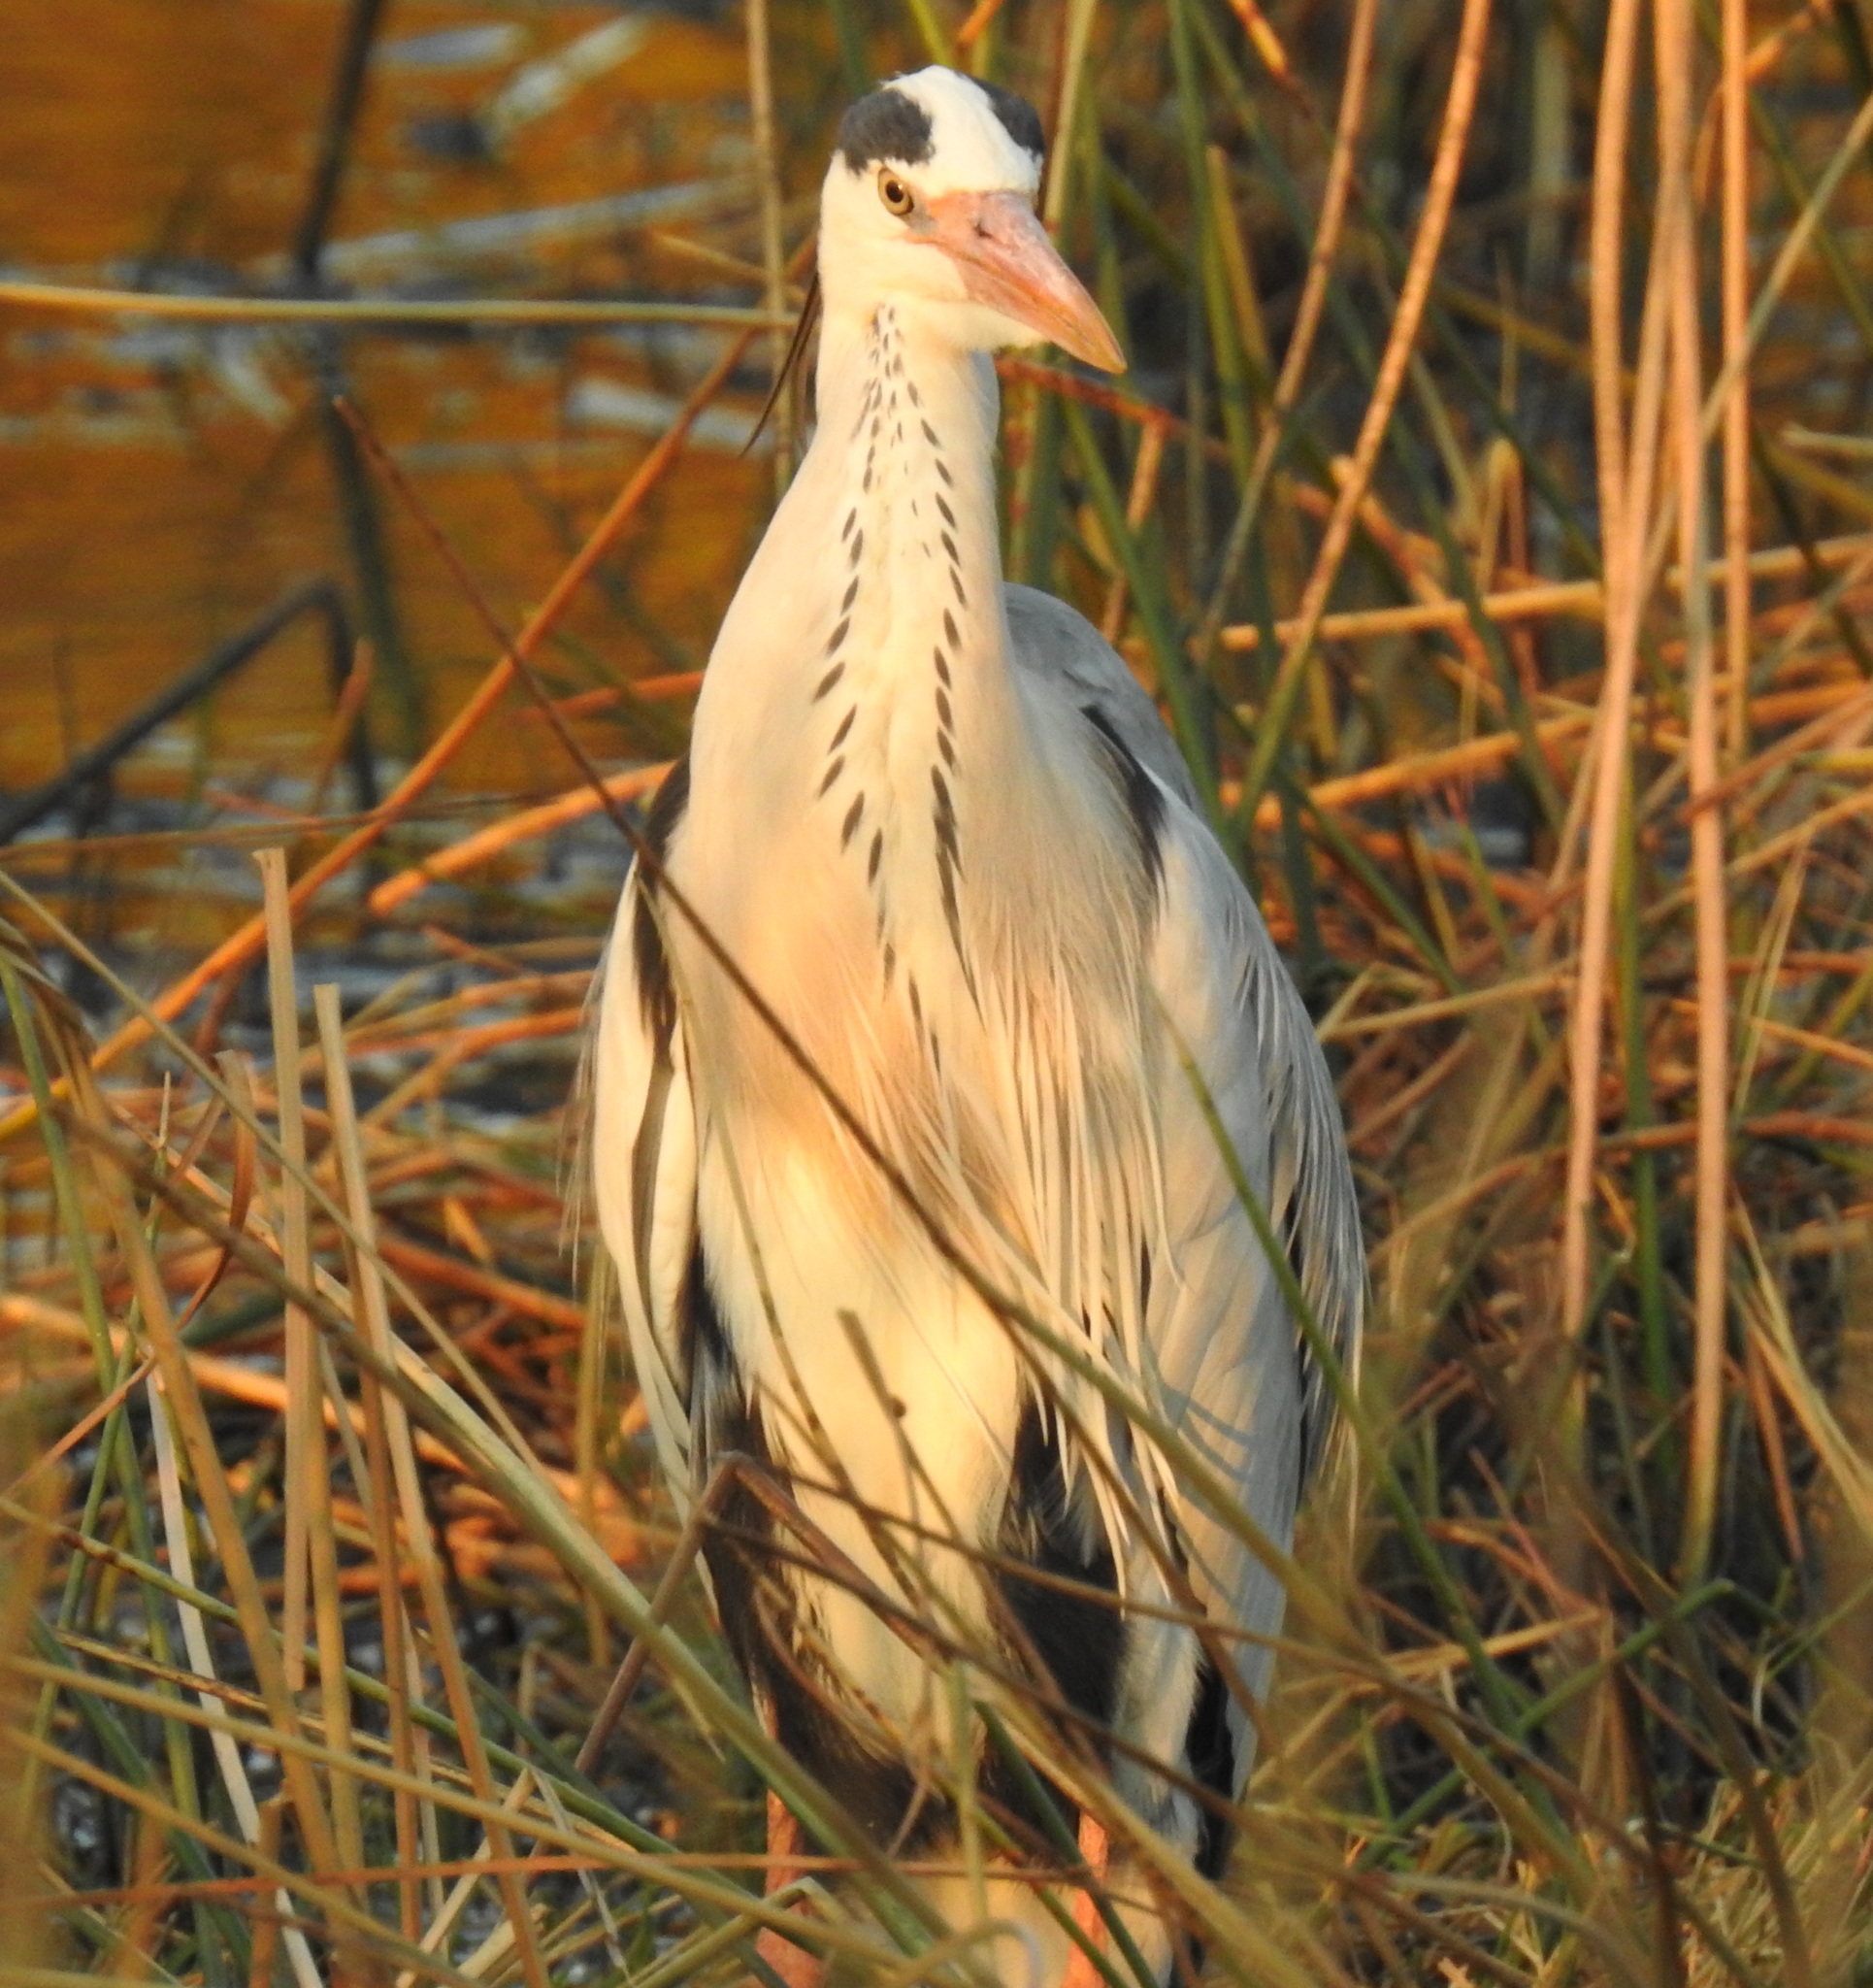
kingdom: Animalia
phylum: Chordata
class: Aves
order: Pelecaniformes
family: Ardeidae
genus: Ardea
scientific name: Ardea cinerea
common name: Grey heron
